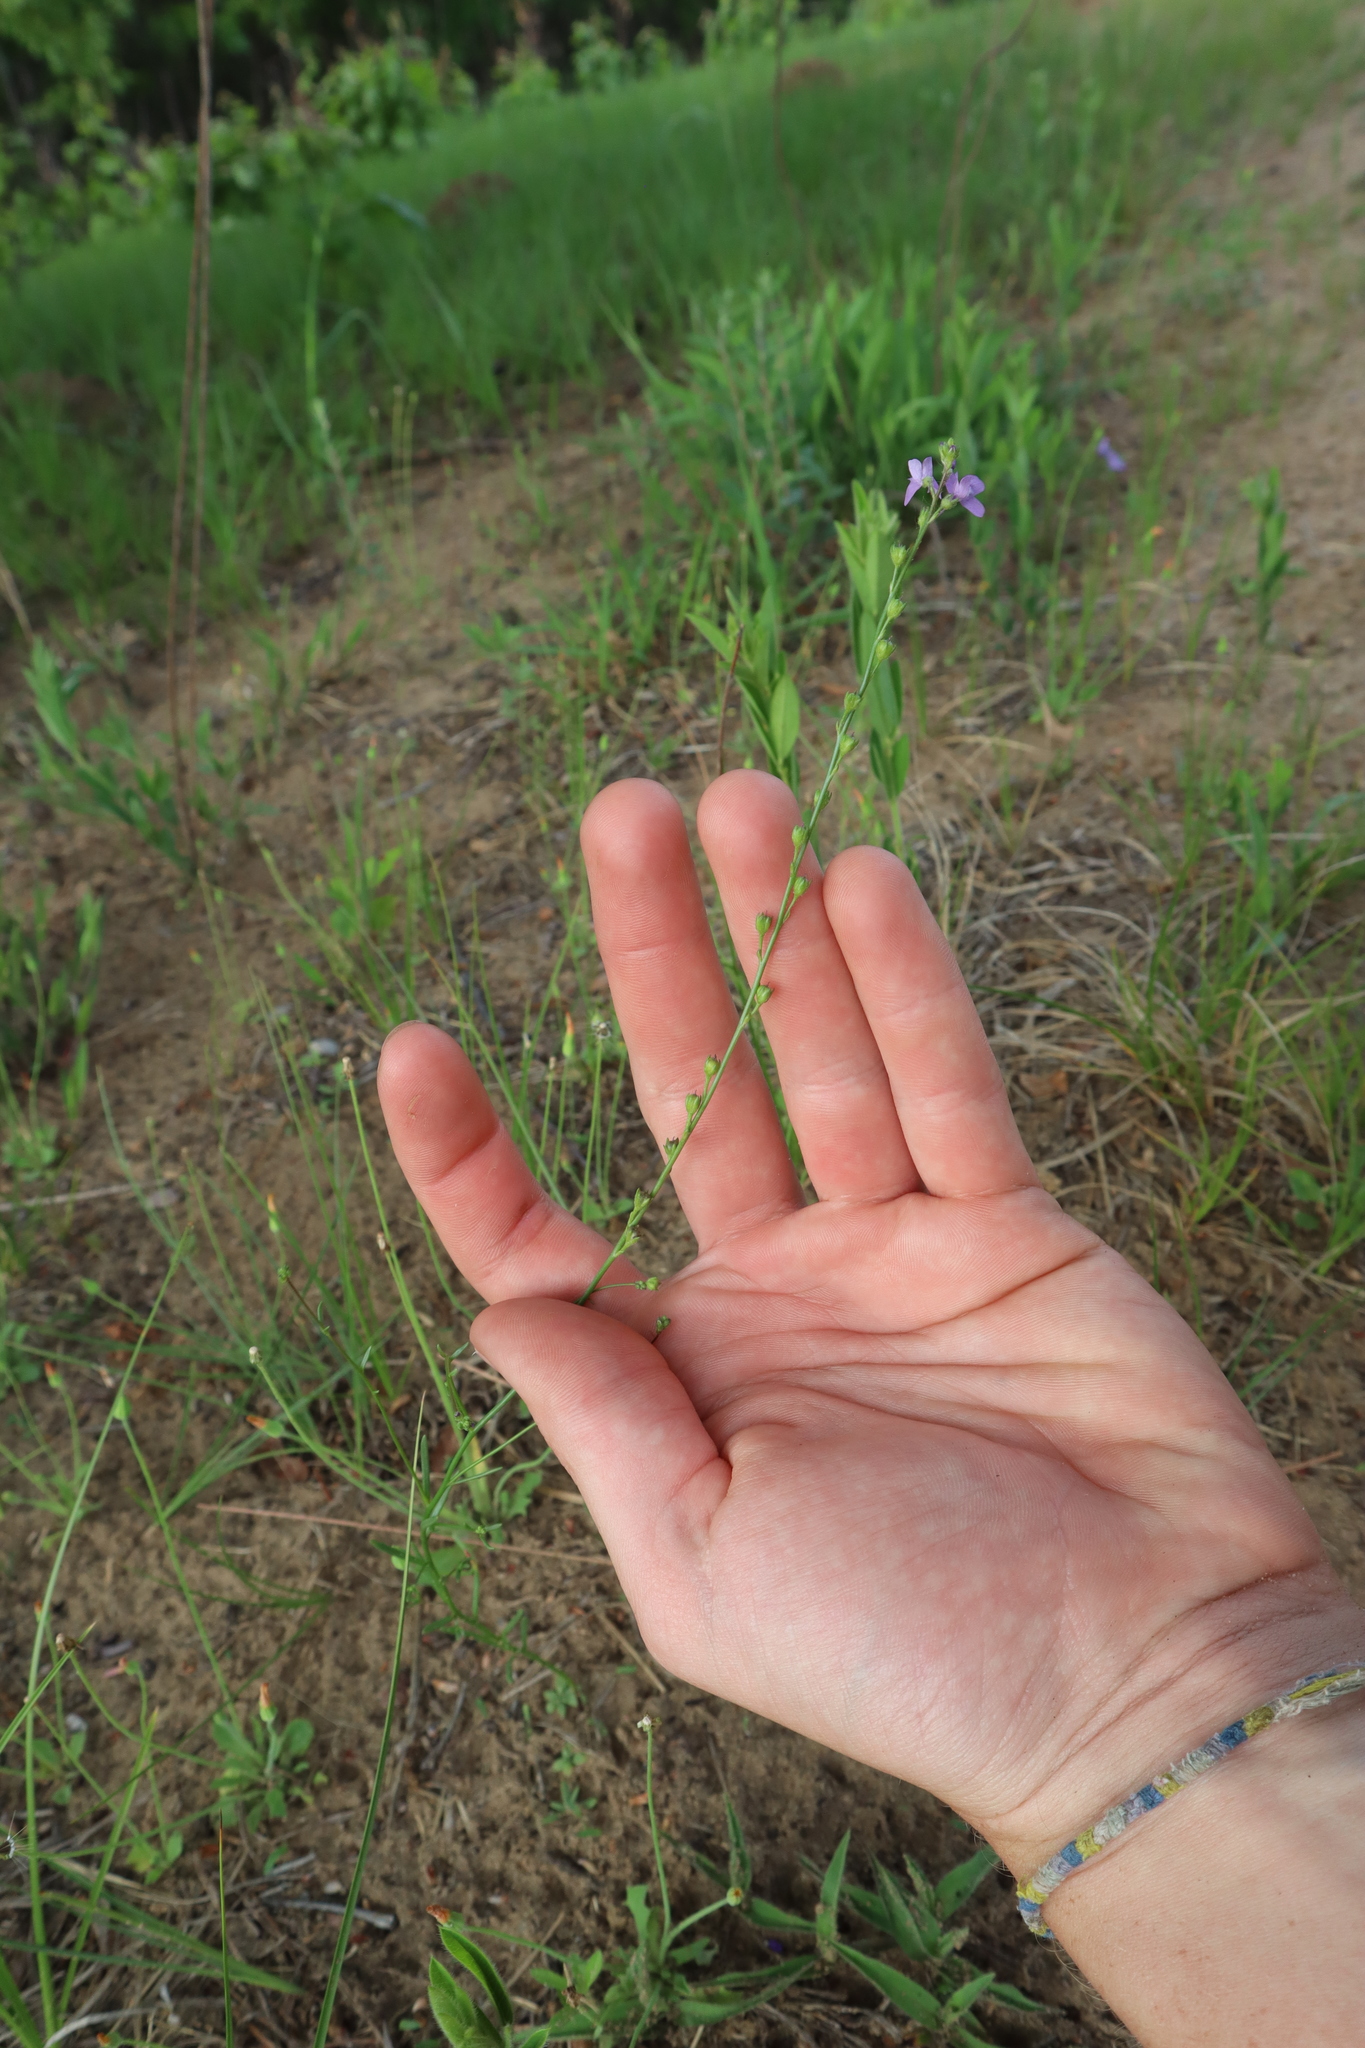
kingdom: Plantae
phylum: Tracheophyta
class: Magnoliopsida
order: Lamiales
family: Plantaginaceae
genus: Nuttallanthus
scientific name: Nuttallanthus canadensis
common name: Blue toadflax
